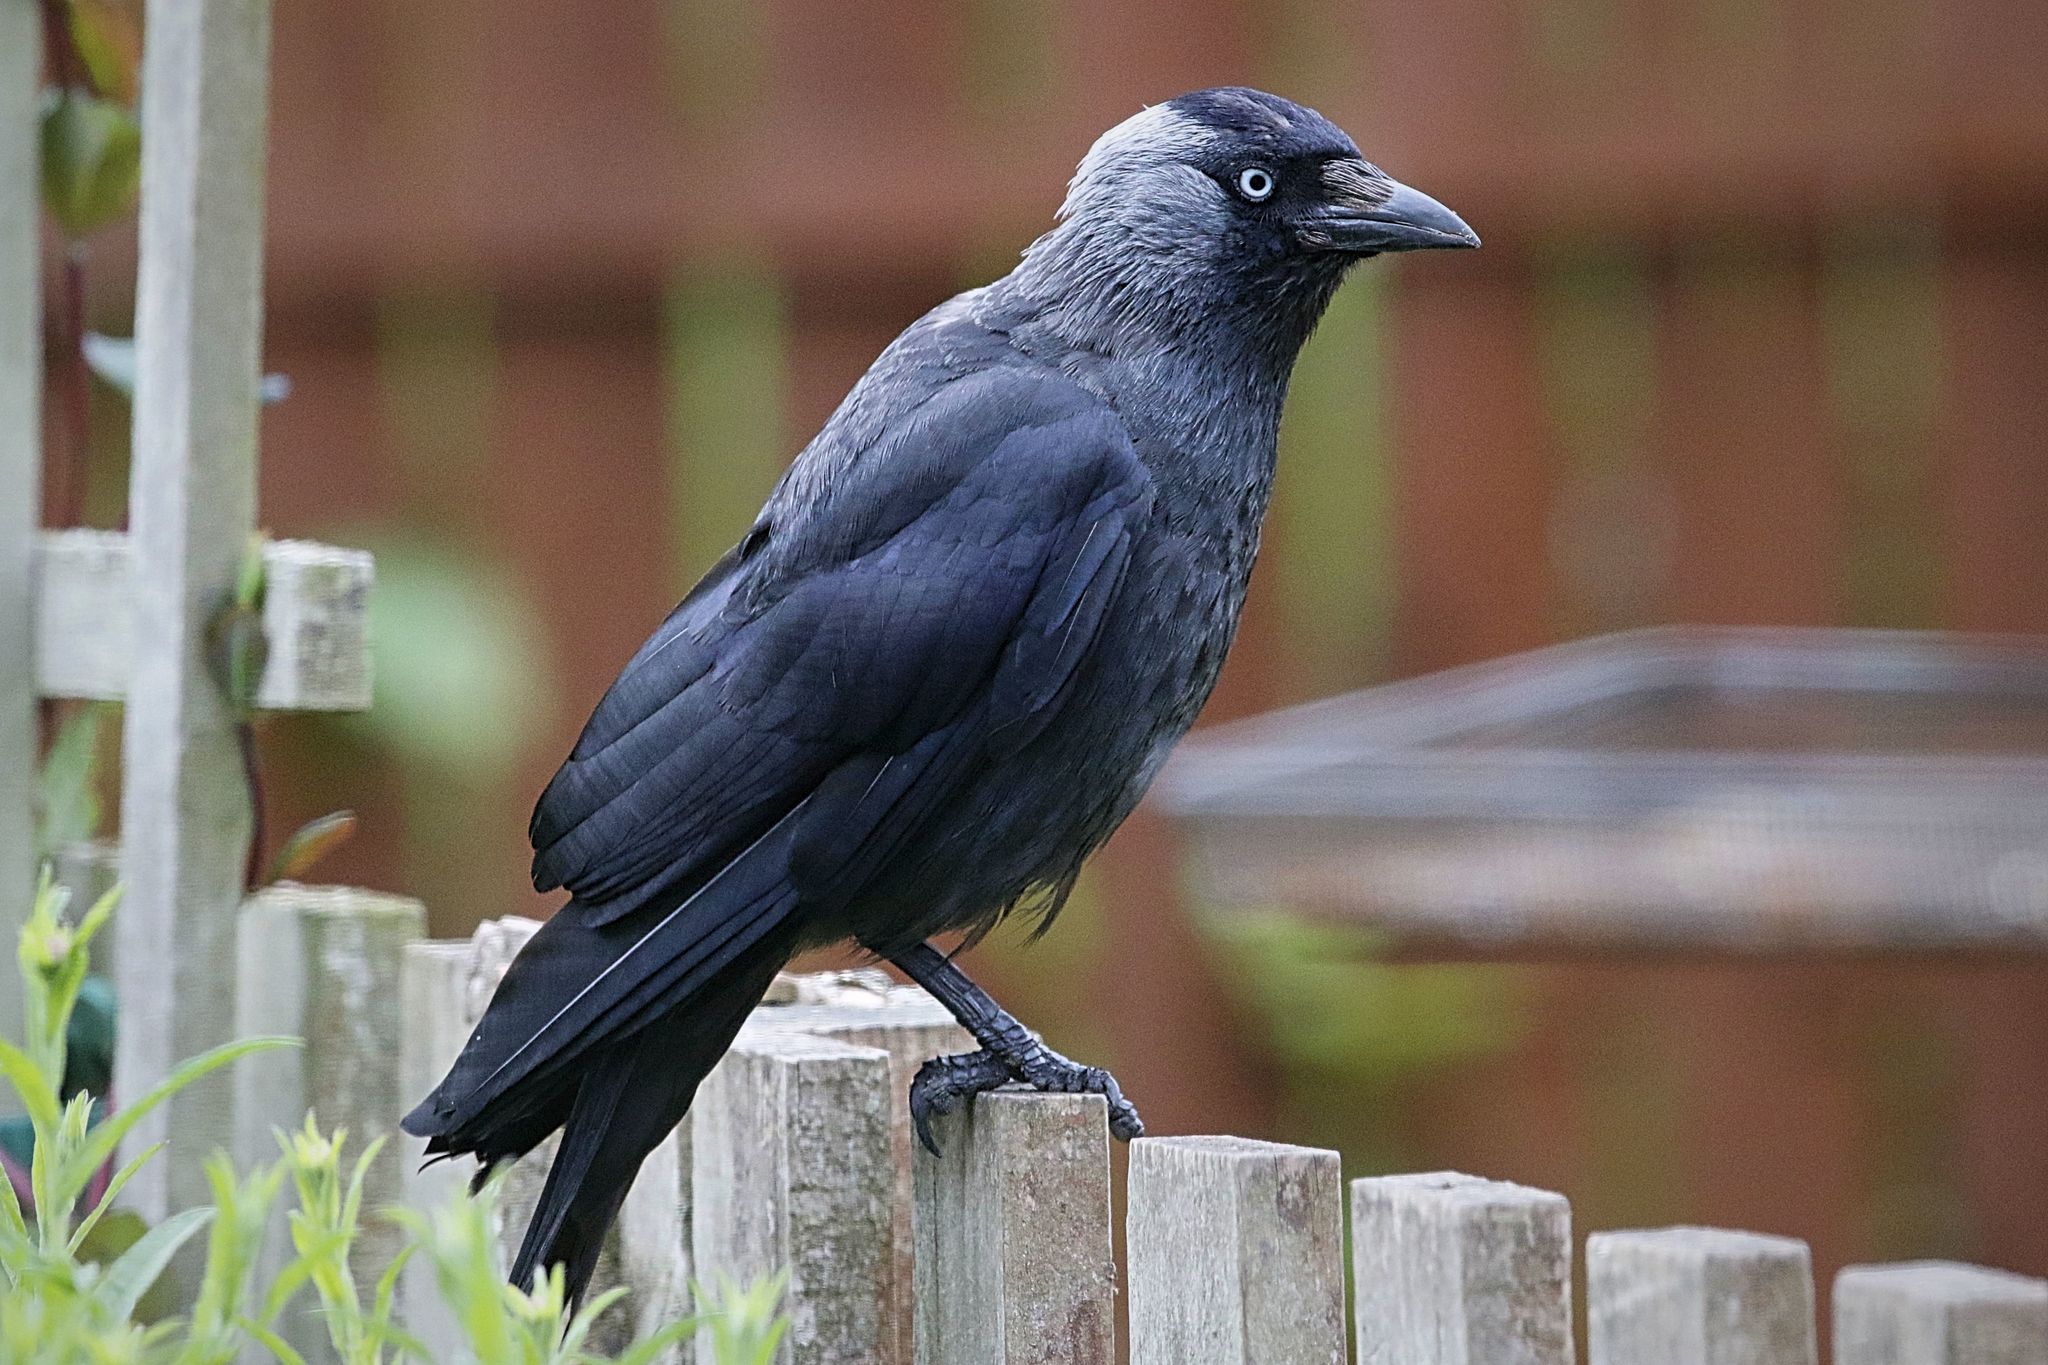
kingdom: Animalia
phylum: Chordata
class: Aves
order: Passeriformes
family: Corvidae
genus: Coloeus
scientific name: Coloeus monedula
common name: Western jackdaw
